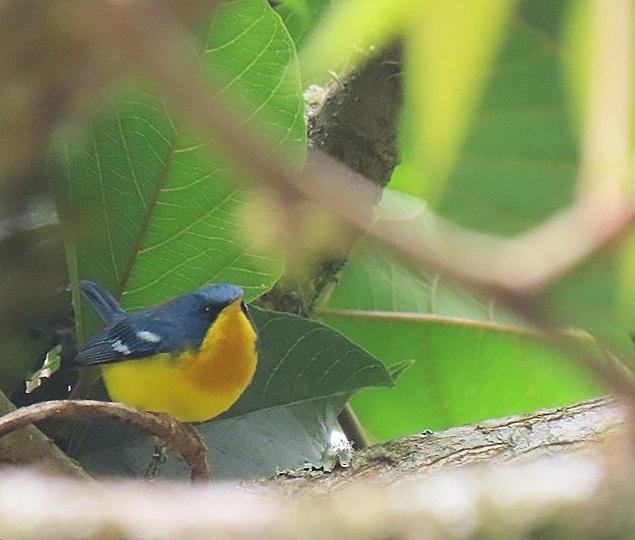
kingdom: Animalia
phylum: Chordata
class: Aves
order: Passeriformes
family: Parulidae
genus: Setophaga
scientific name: Setophaga pitiayumi
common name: Tropical parula
